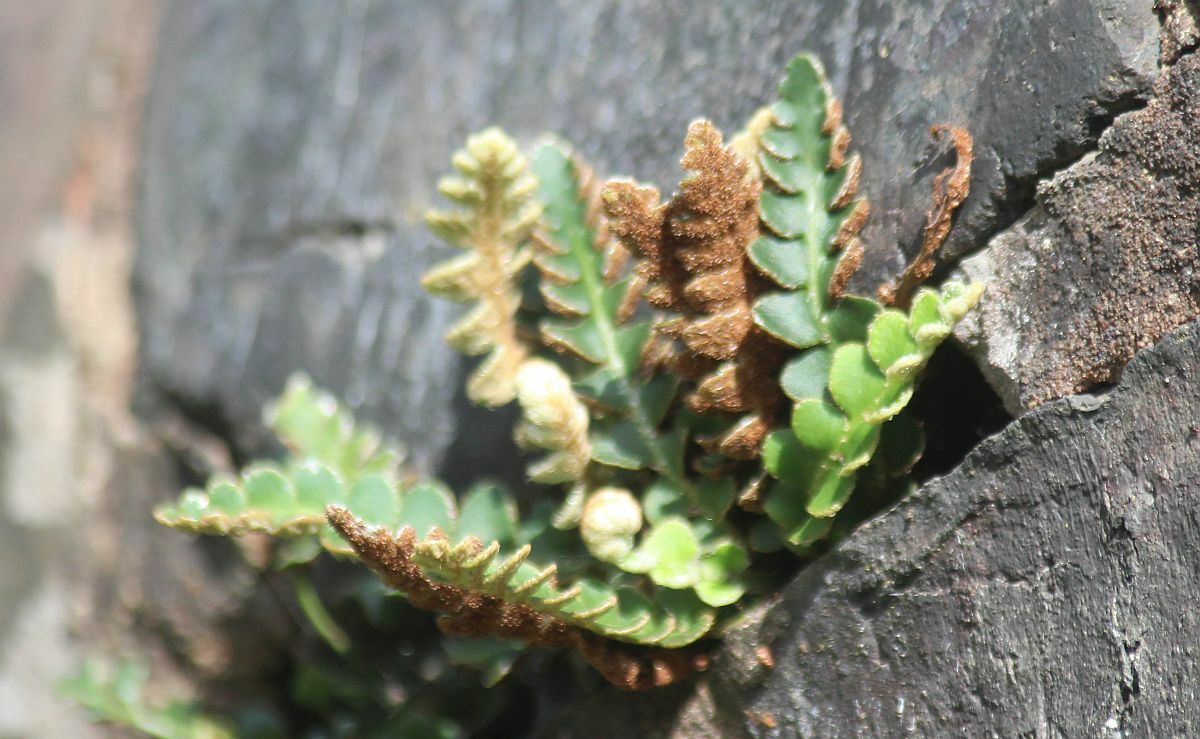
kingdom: Plantae
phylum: Tracheophyta
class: Polypodiopsida
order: Polypodiales
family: Aspleniaceae
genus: Asplenium
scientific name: Asplenium ceterach
